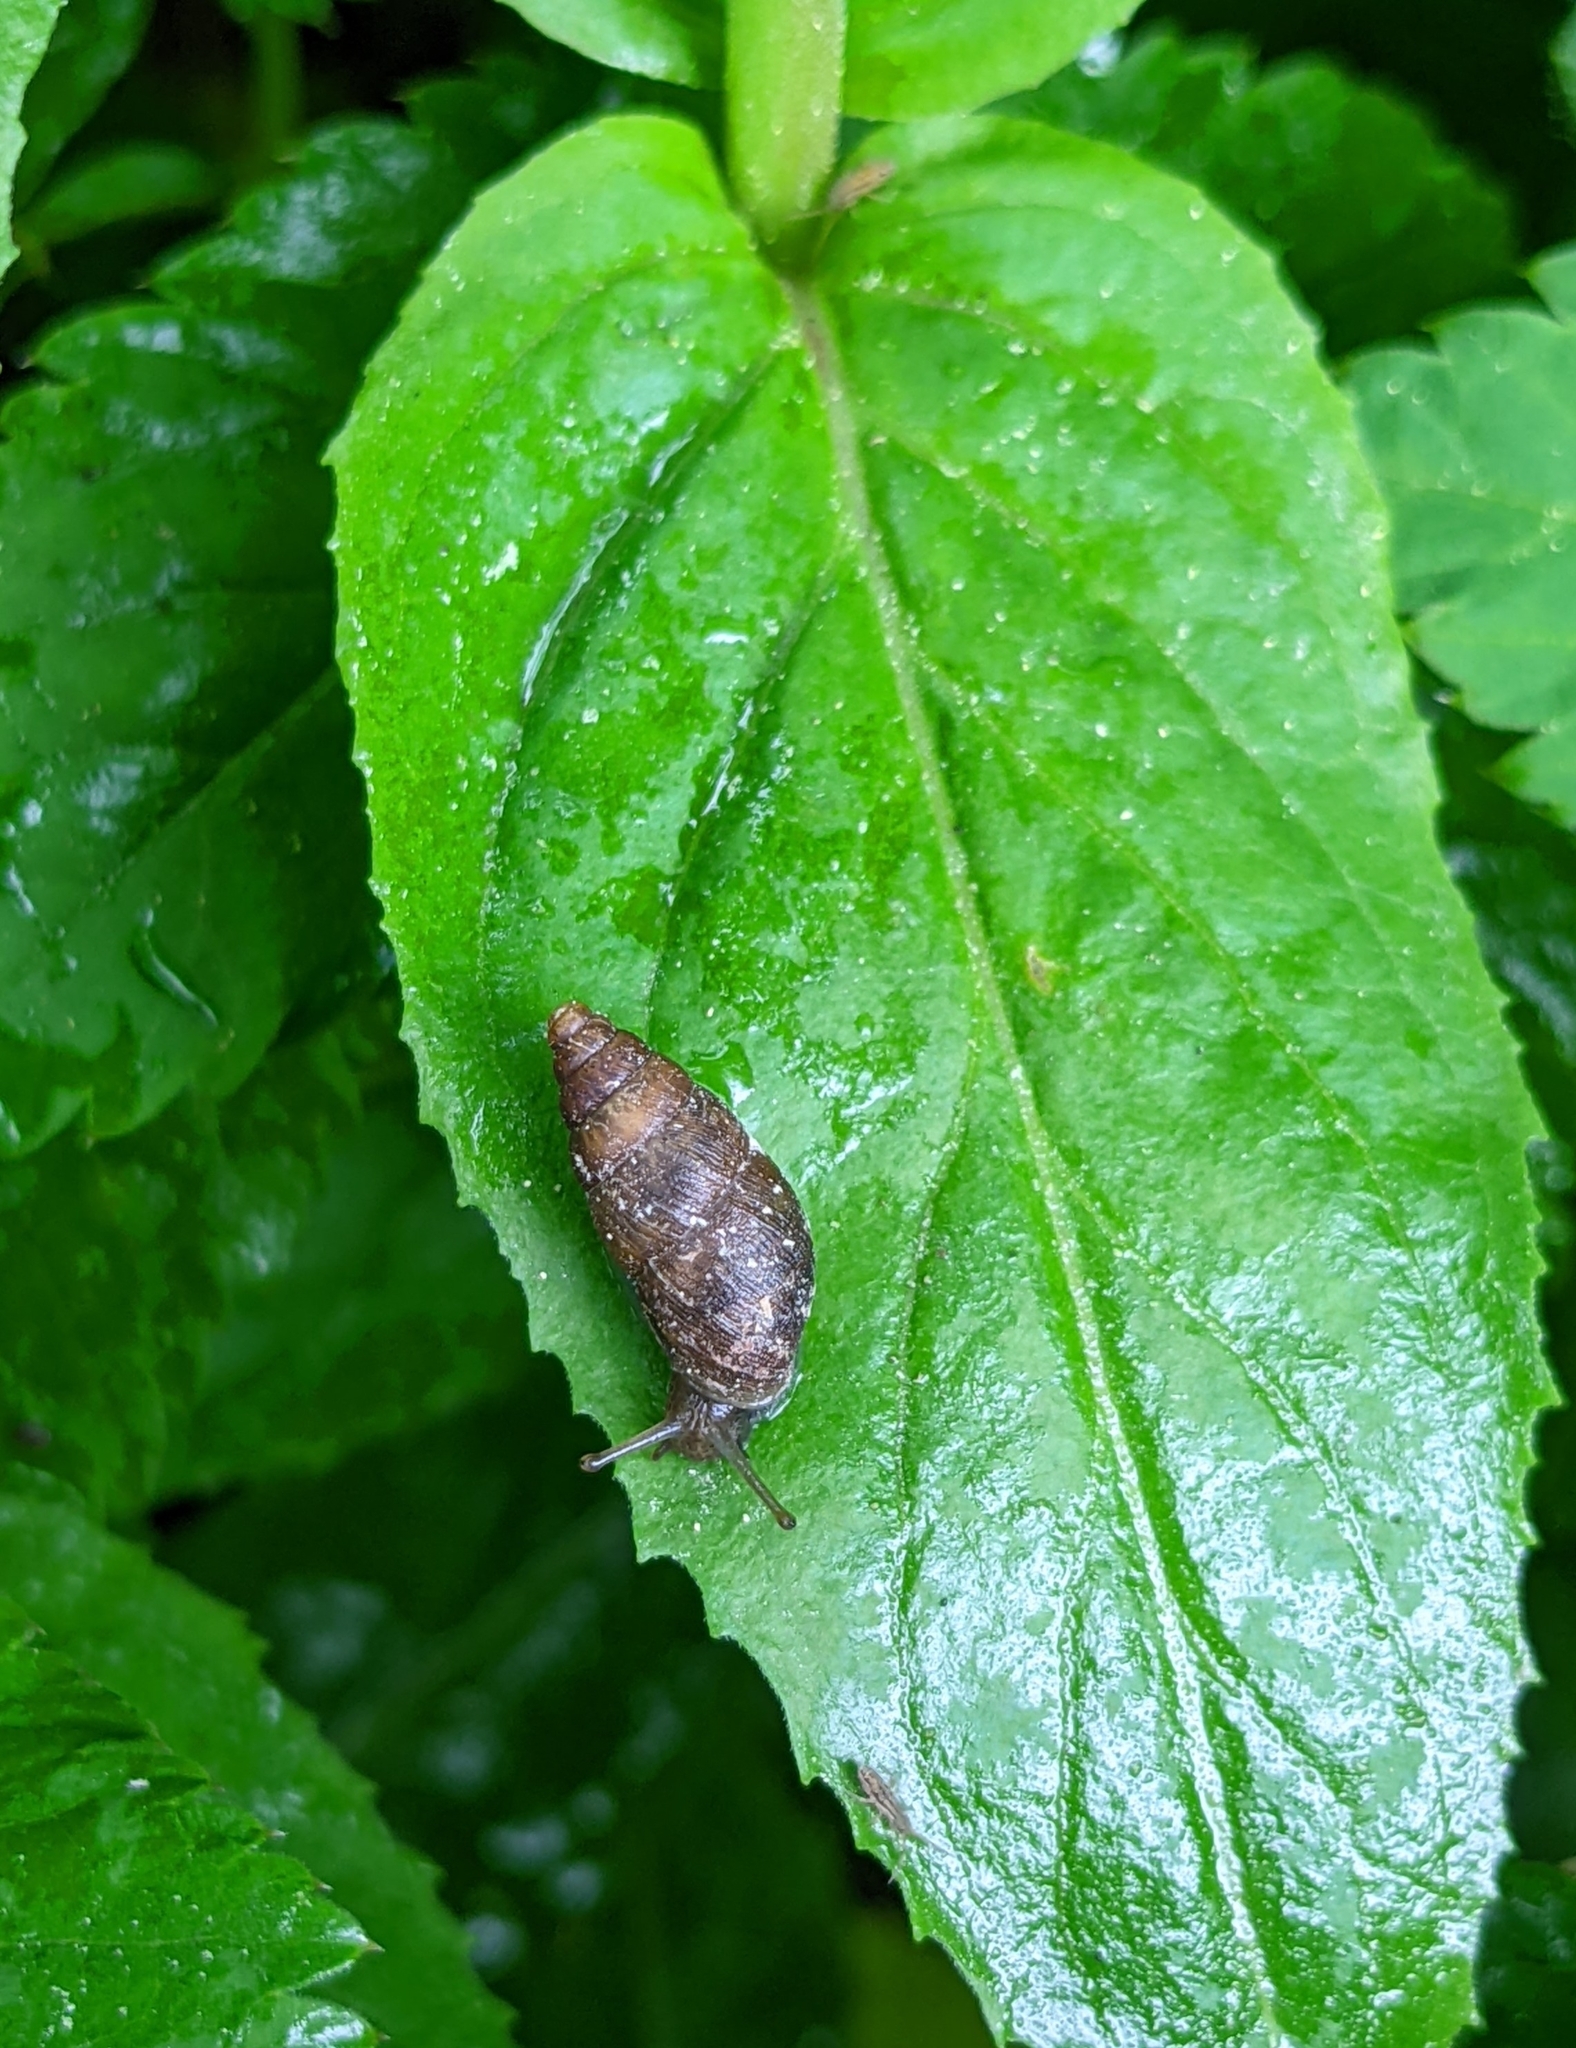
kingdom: Animalia
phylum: Mollusca
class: Gastropoda
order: Stylommatophora
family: Enidae
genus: Ena
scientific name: Ena montana
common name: Mountain bulin
